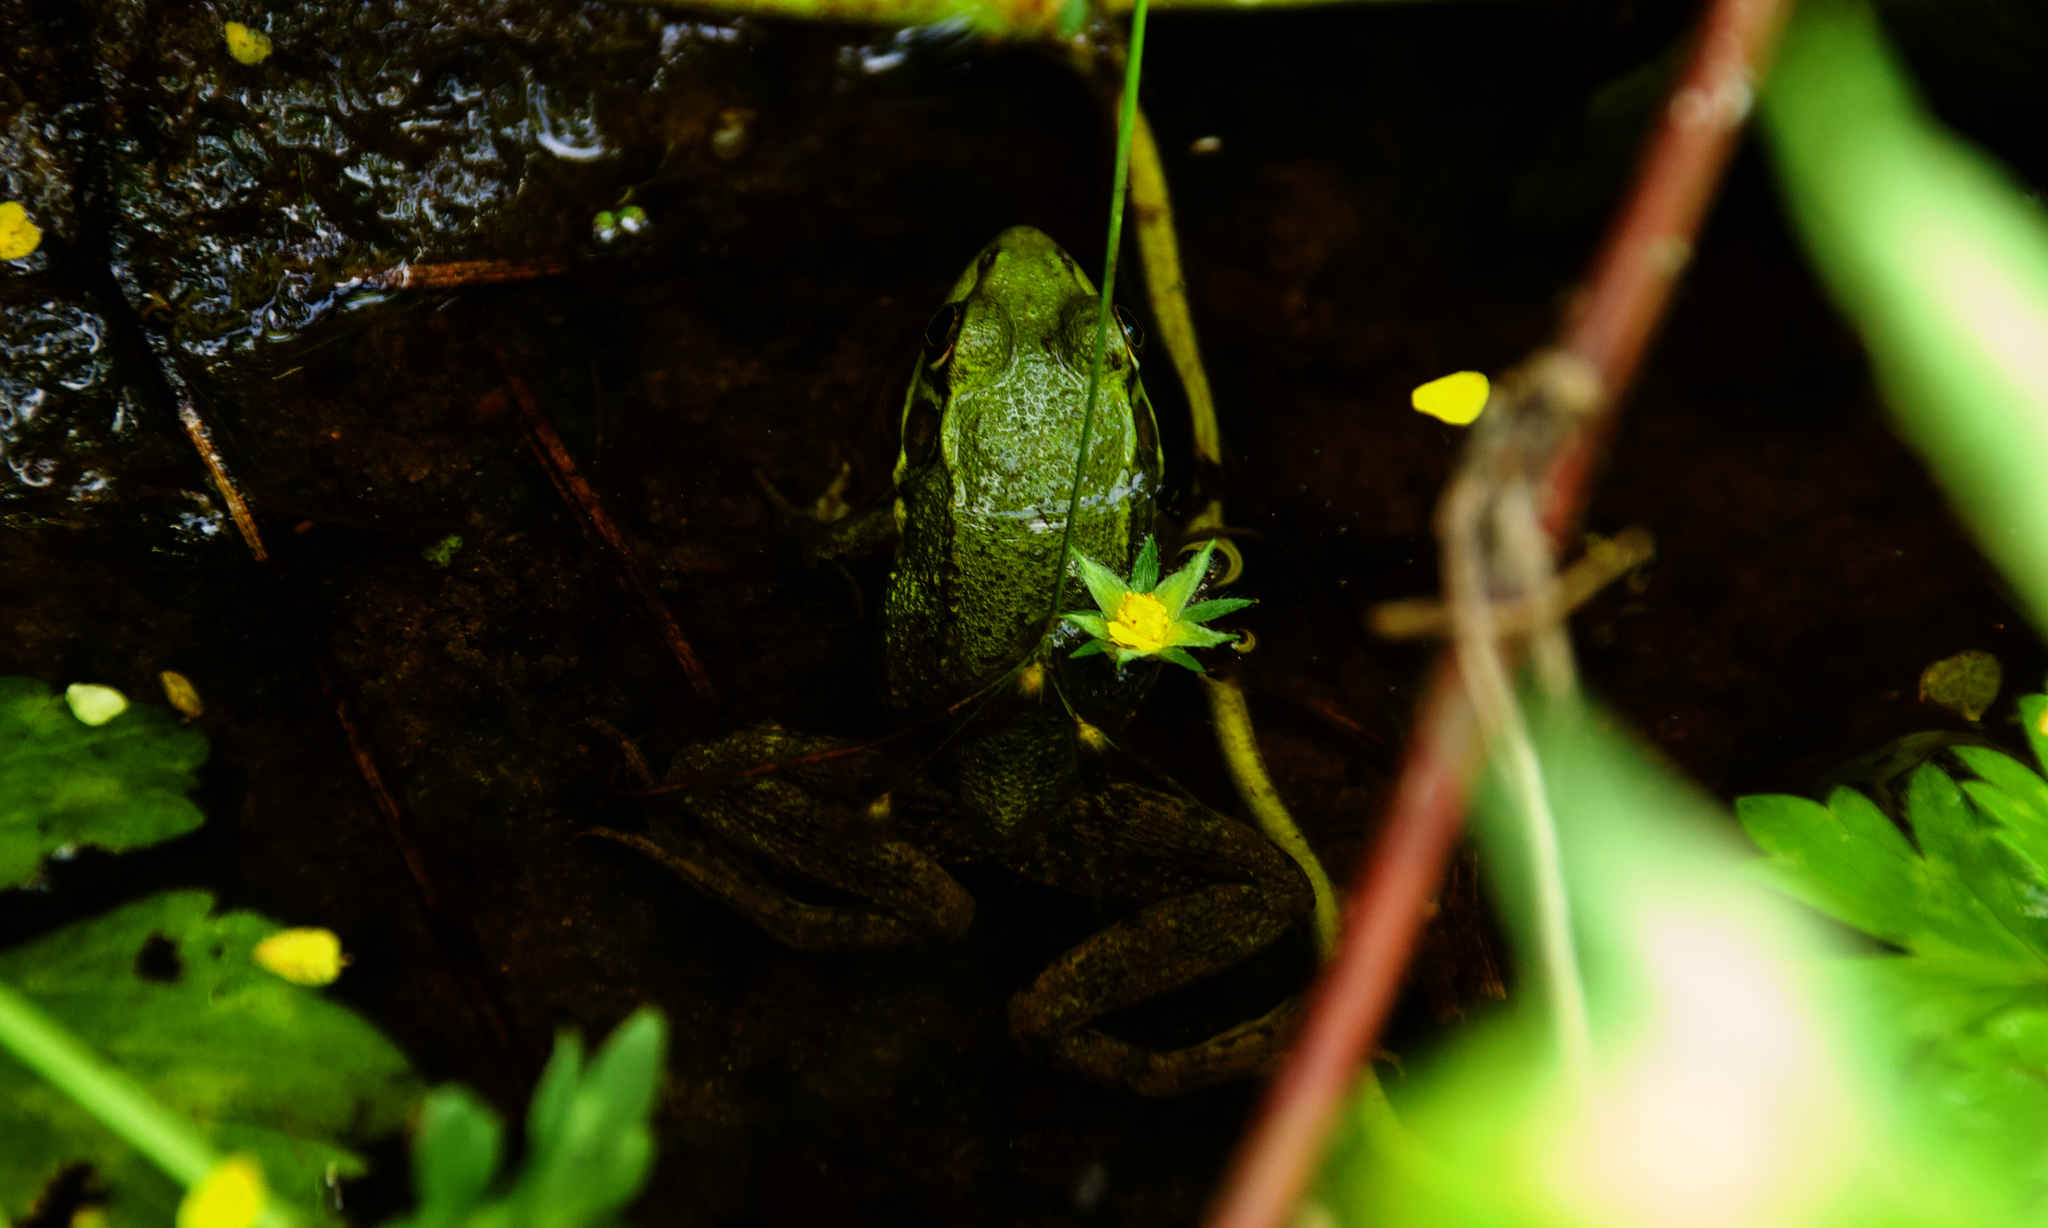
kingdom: Animalia
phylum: Chordata
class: Amphibia
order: Anura
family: Ranidae
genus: Lithobates
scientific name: Lithobates clamitans
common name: Green frog
